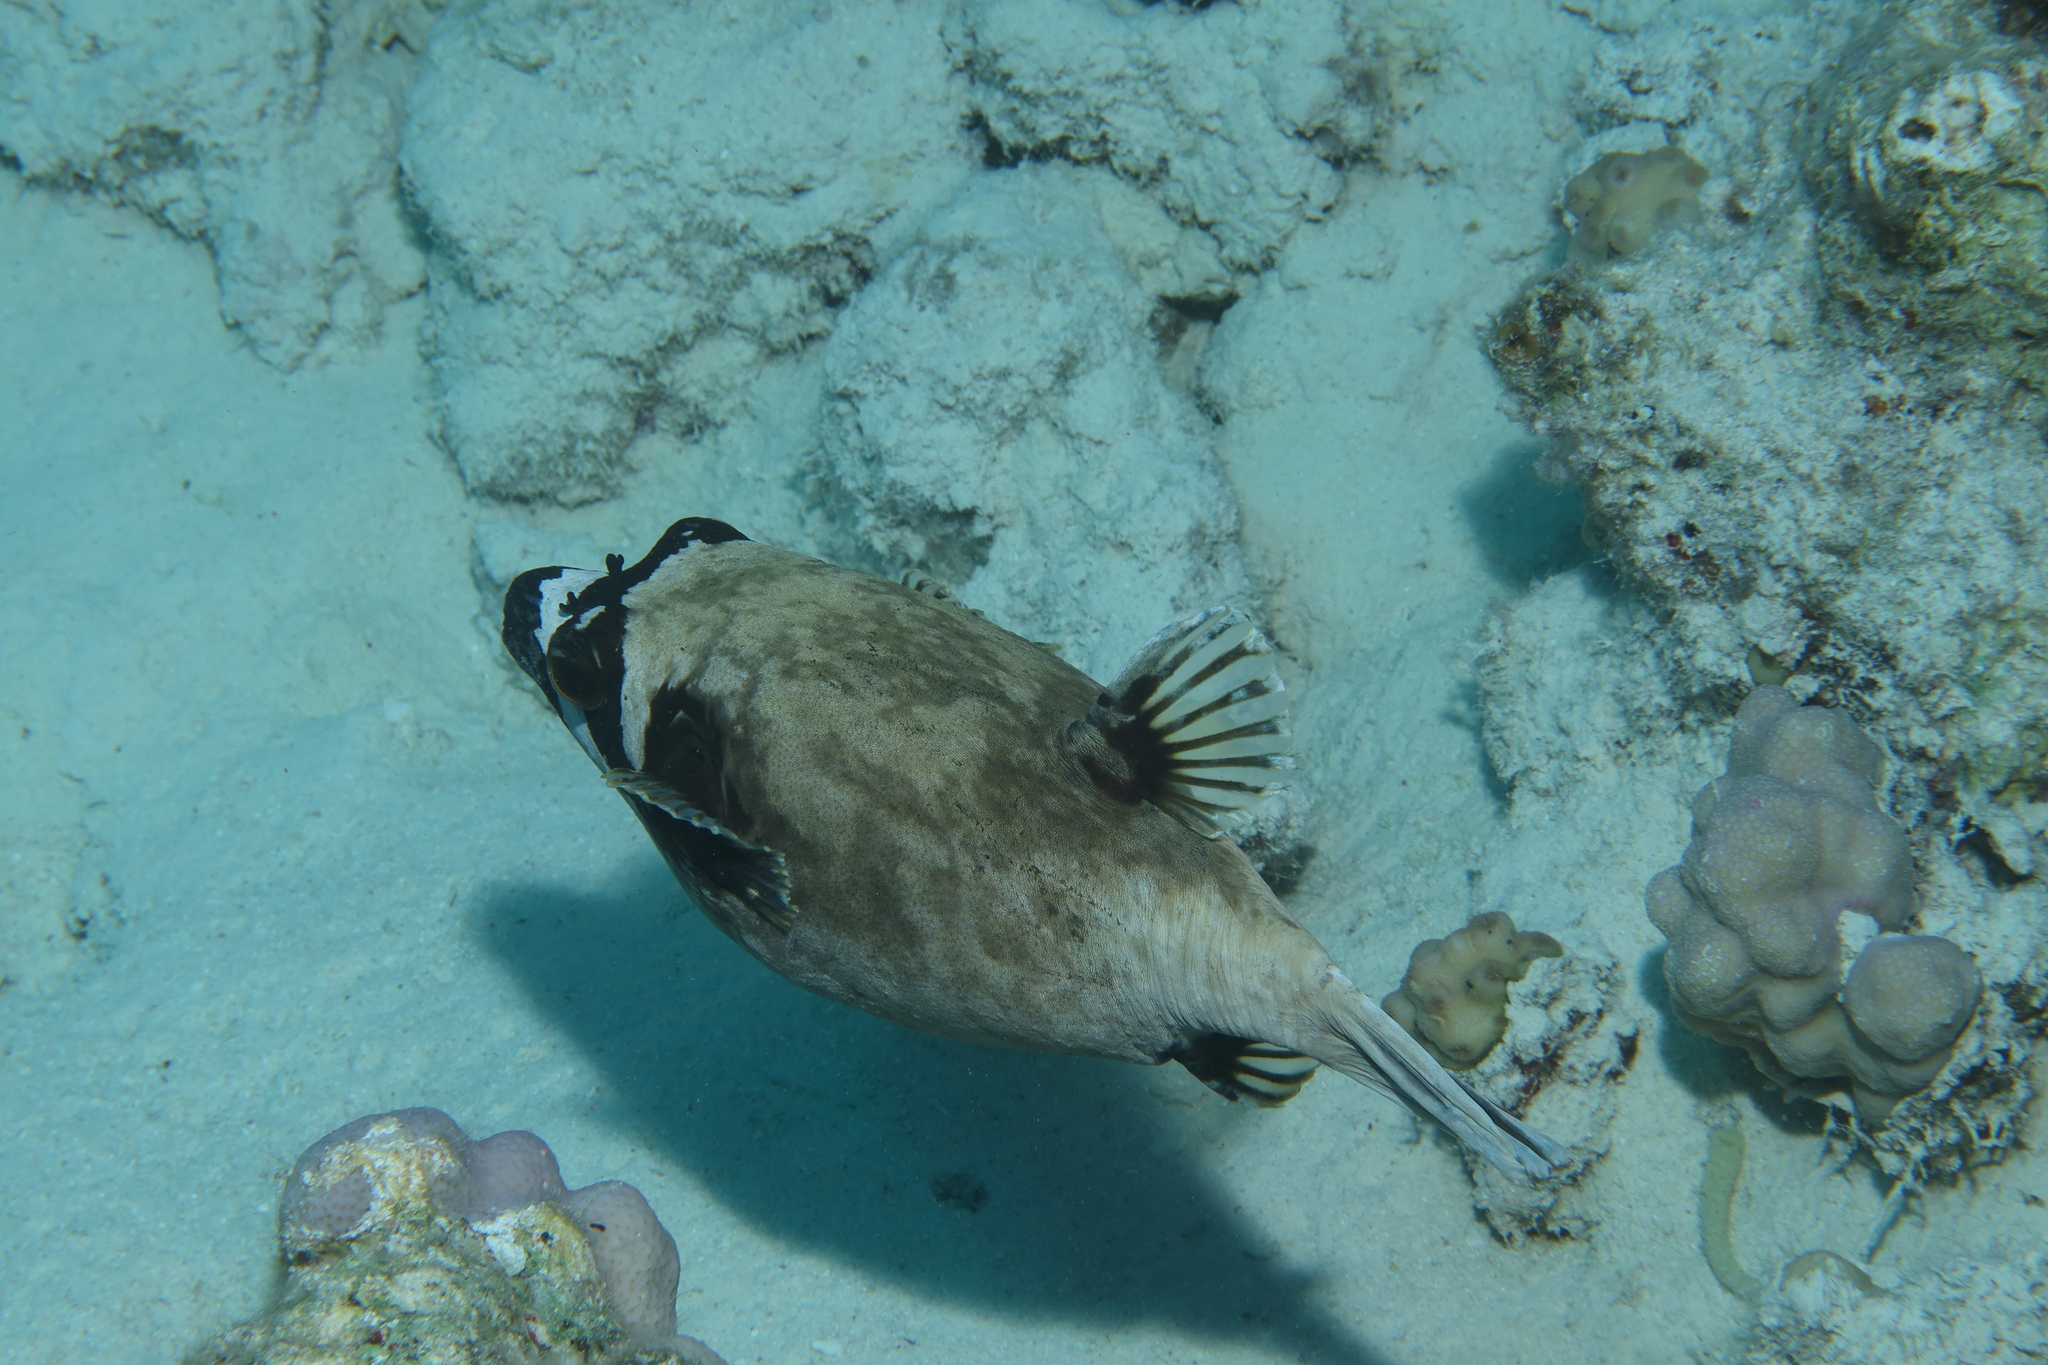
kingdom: Animalia
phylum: Chordata
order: Tetraodontiformes
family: Tetraodontidae
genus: Arothron
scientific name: Arothron diadematus
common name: Masked puffer
